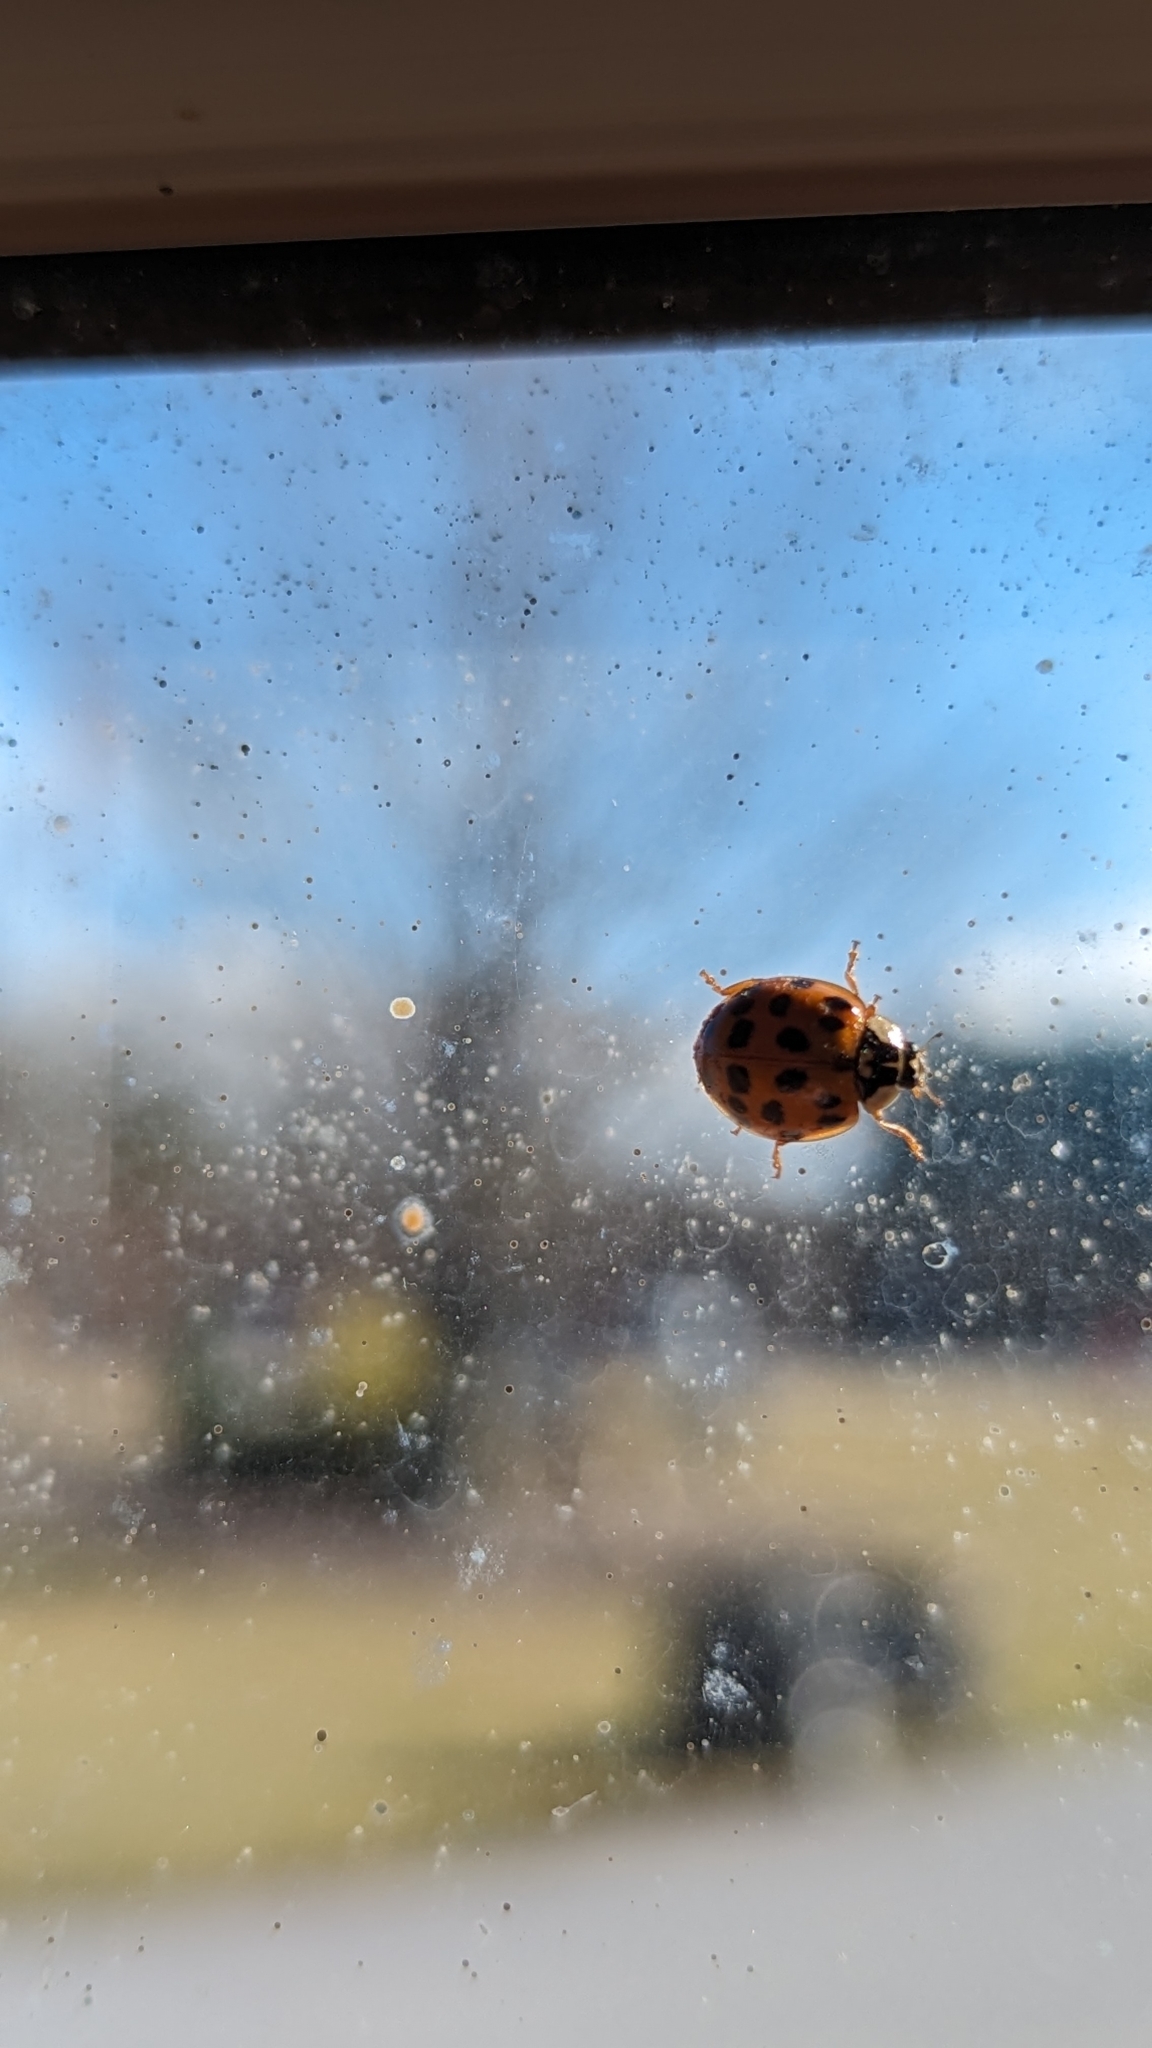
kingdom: Animalia
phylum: Arthropoda
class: Insecta
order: Coleoptera
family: Coccinellidae
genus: Harmonia
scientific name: Harmonia axyridis
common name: Harlequin ladybird
